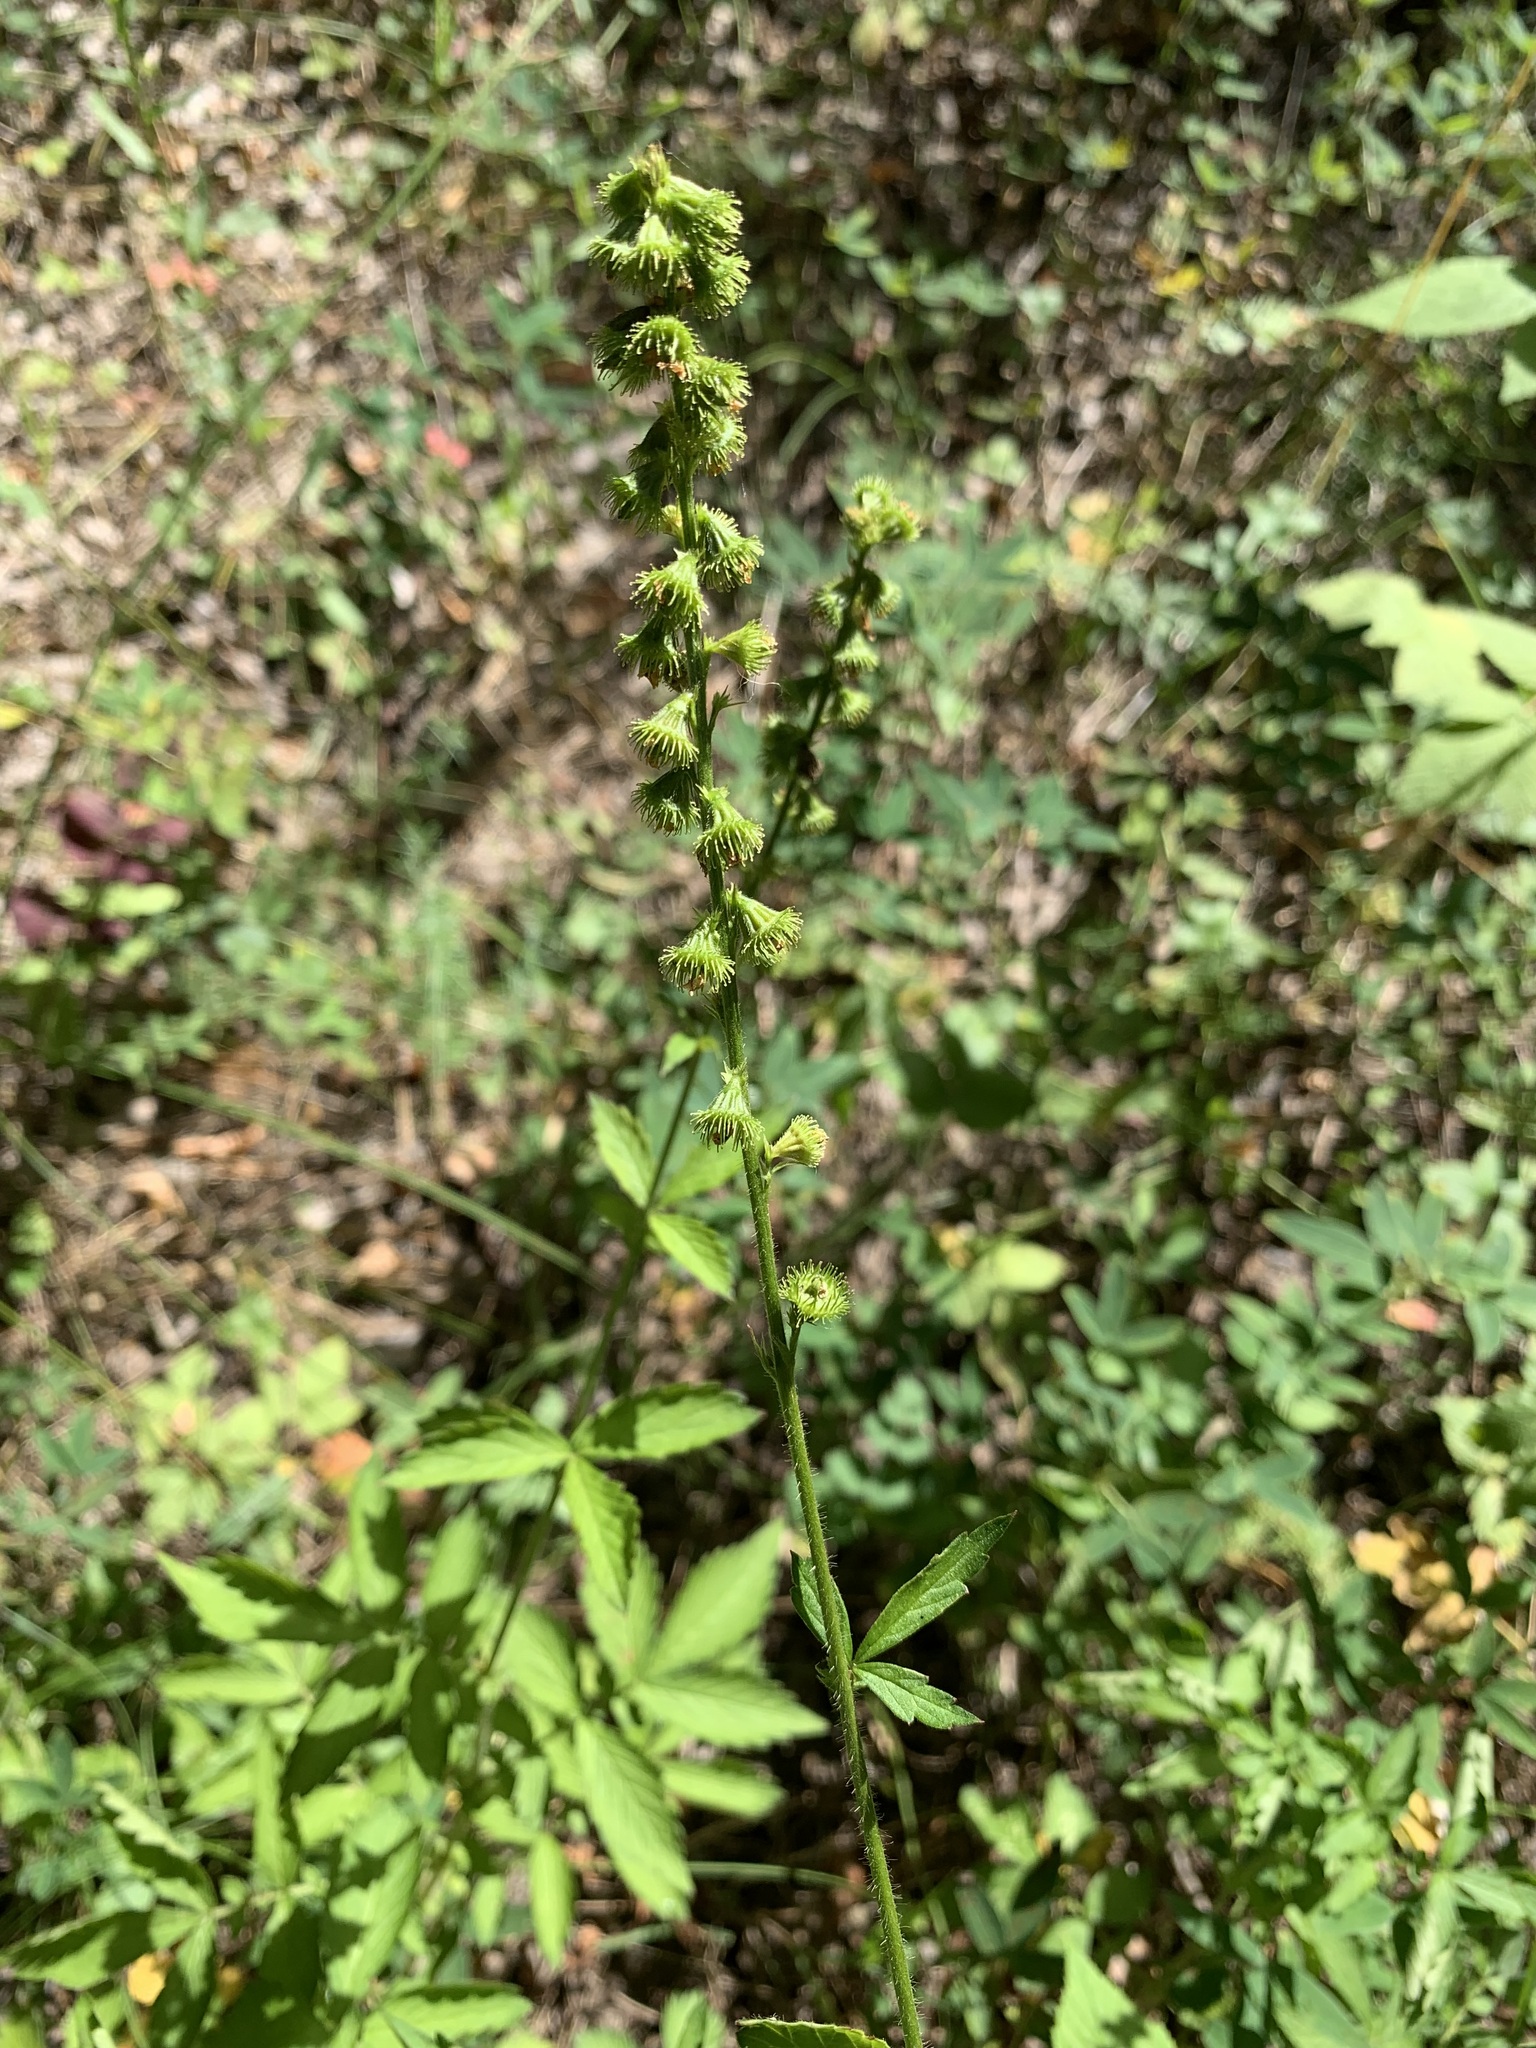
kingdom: Plantae
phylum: Tracheophyta
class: Magnoliopsida
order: Rosales
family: Rosaceae
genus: Agrimonia
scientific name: Agrimonia pilosa
